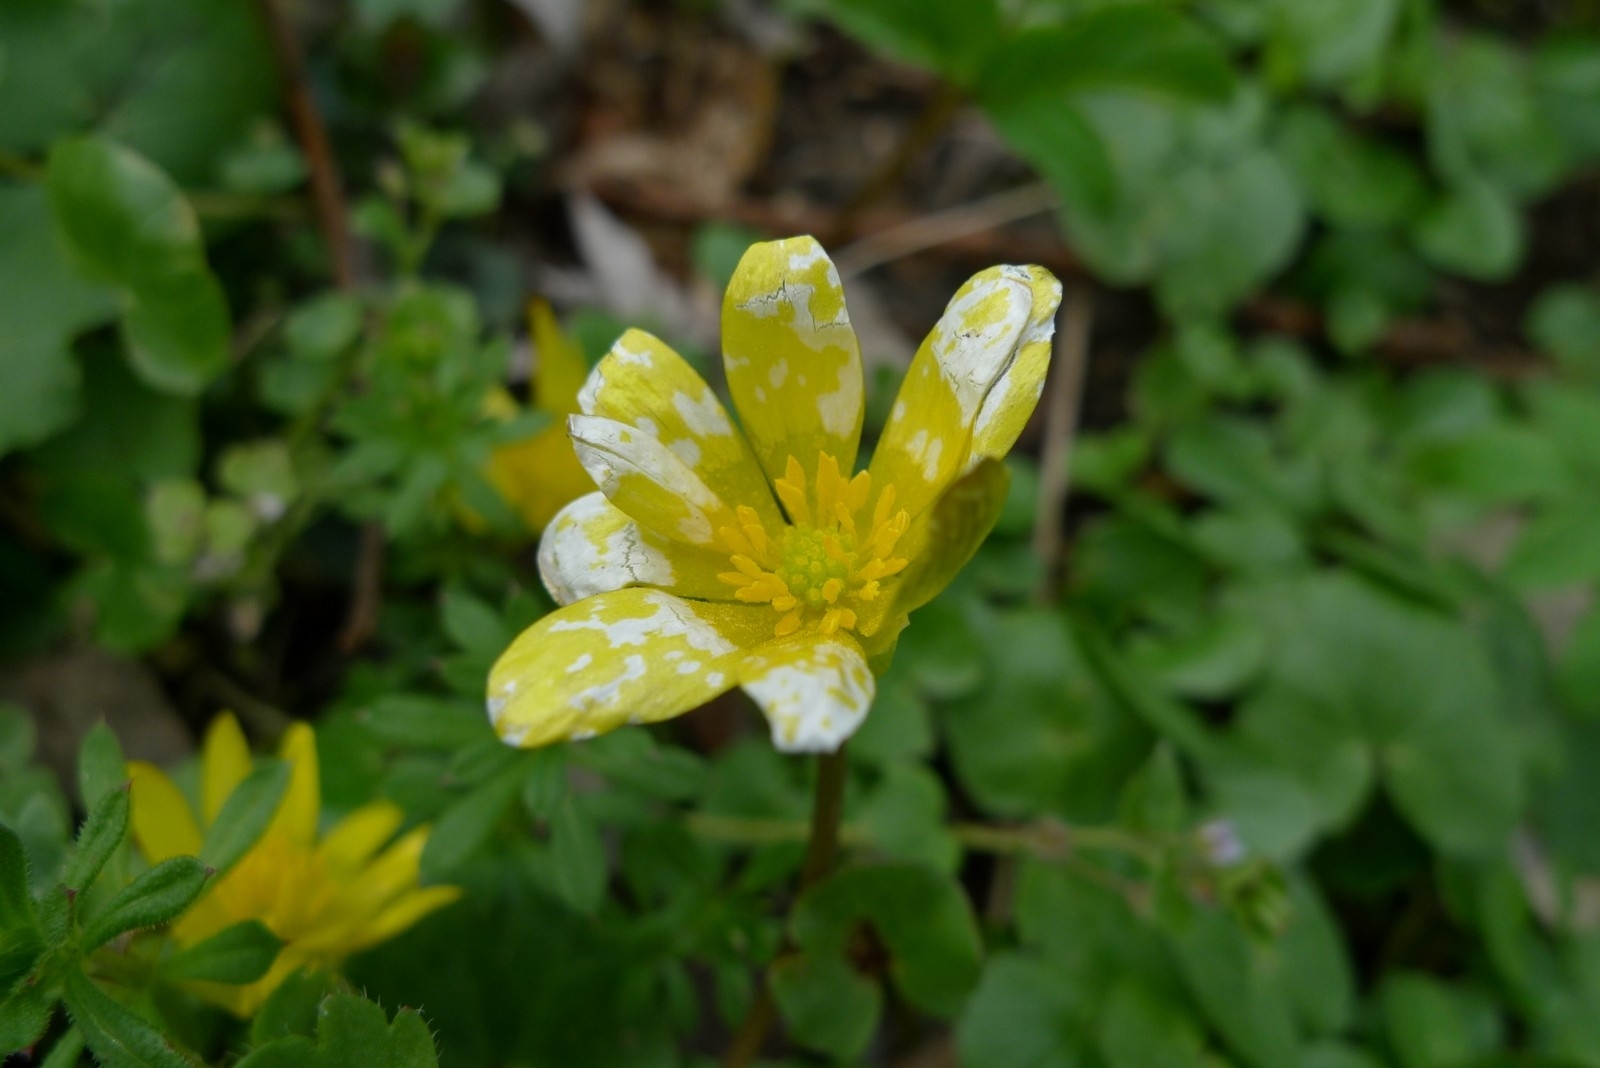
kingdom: Plantae
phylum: Tracheophyta
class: Magnoliopsida
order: Ranunculales
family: Ranunculaceae
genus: Ficaria
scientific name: Ficaria verna
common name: Lesser celandine
